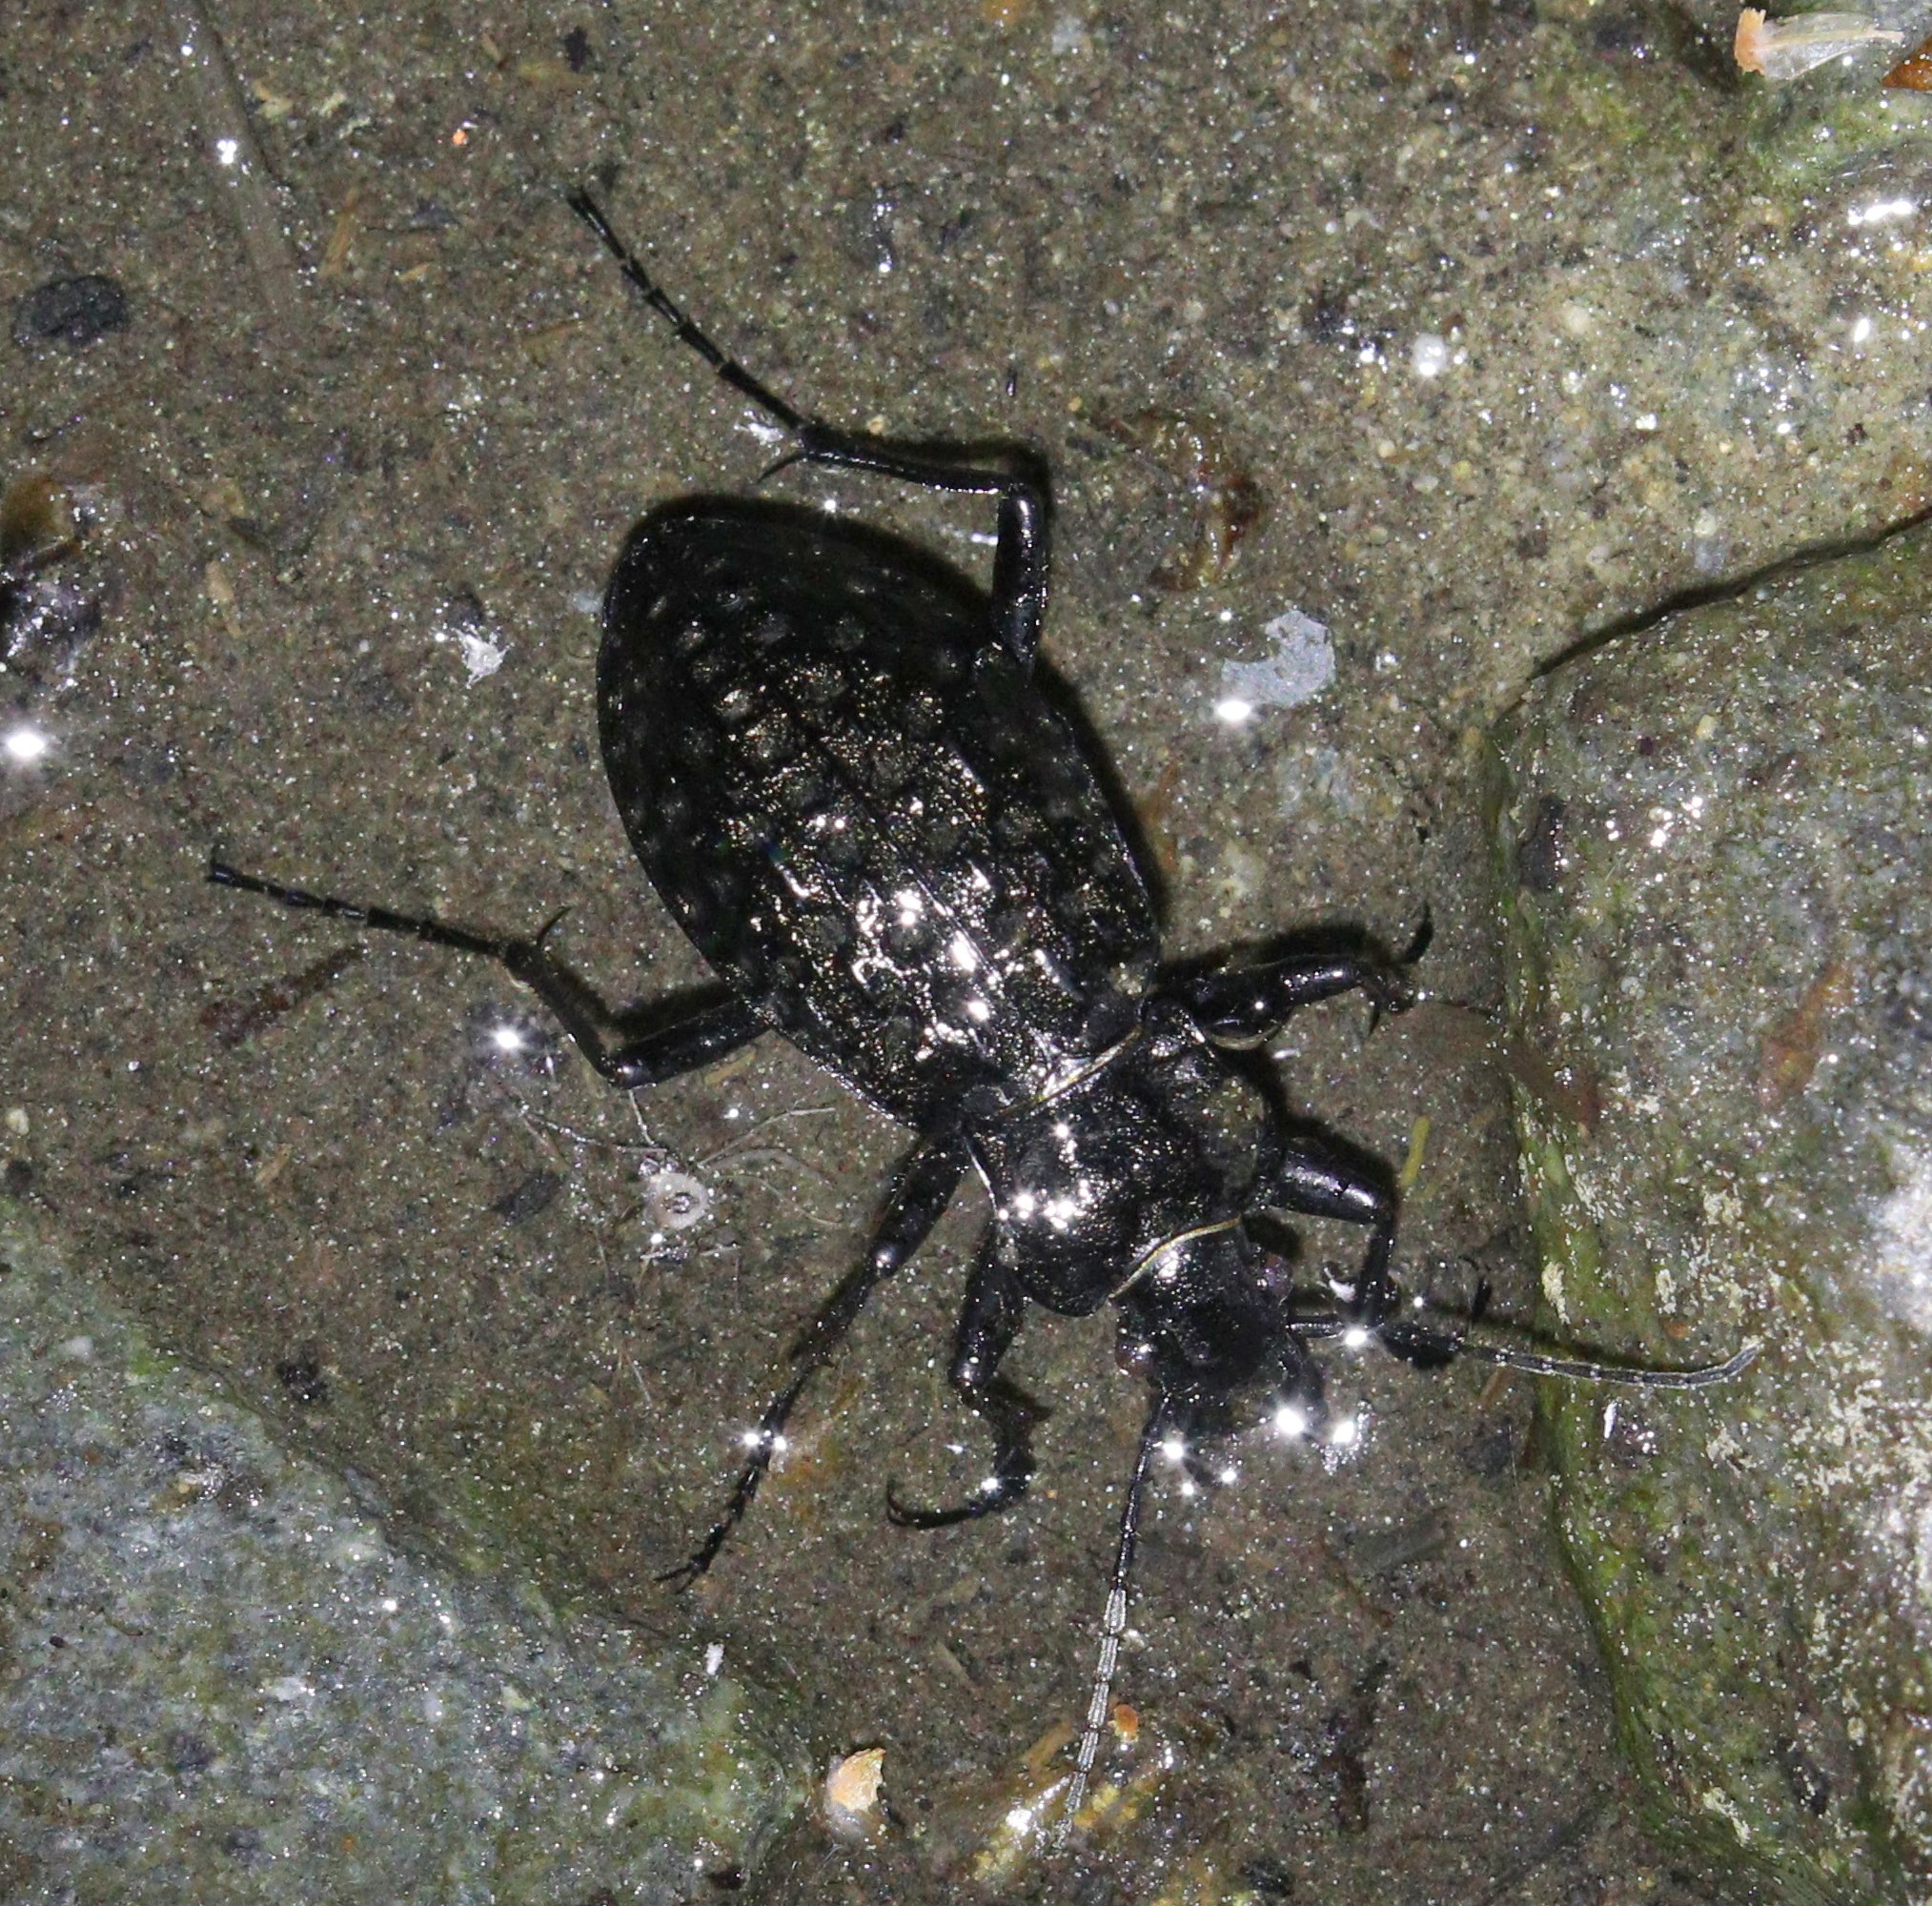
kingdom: Animalia
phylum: Arthropoda
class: Insecta
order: Coleoptera
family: Carabidae
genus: Carabus
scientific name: Carabus variolosus
